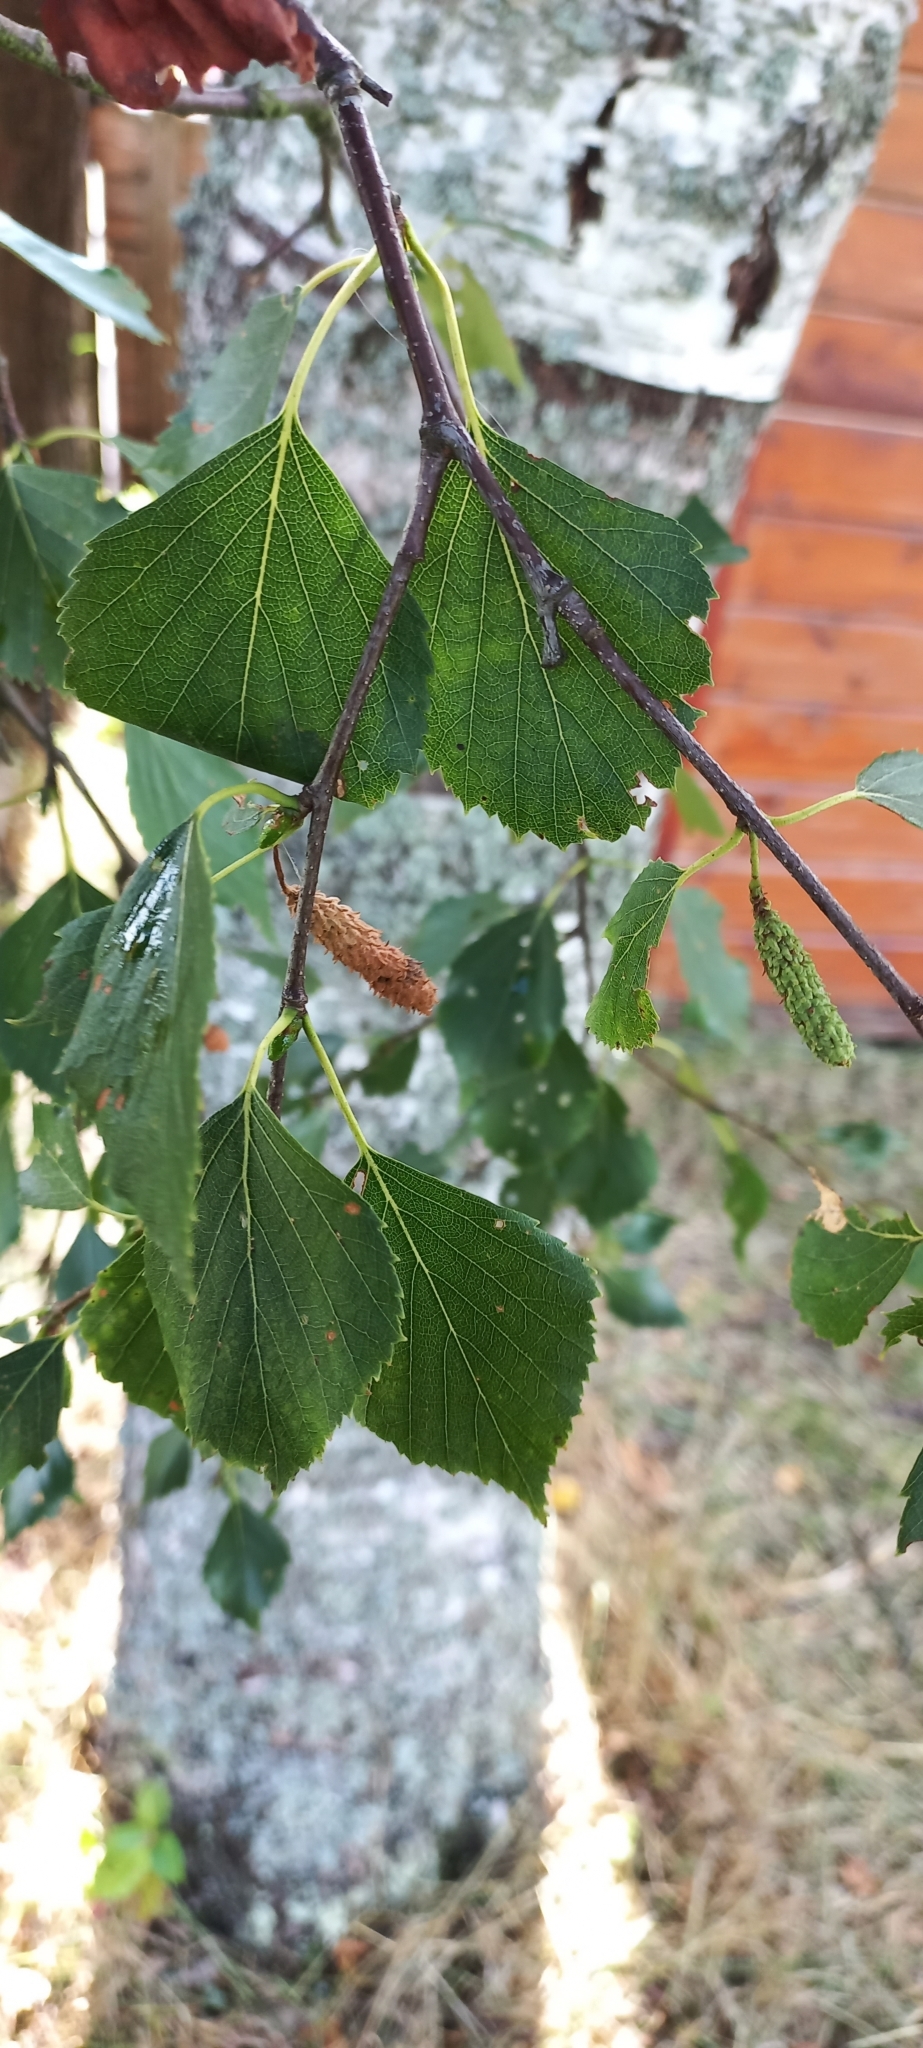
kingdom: Plantae
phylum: Tracheophyta
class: Magnoliopsida
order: Fagales
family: Betulaceae
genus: Betula
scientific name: Betula pendula
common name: Silver birch
